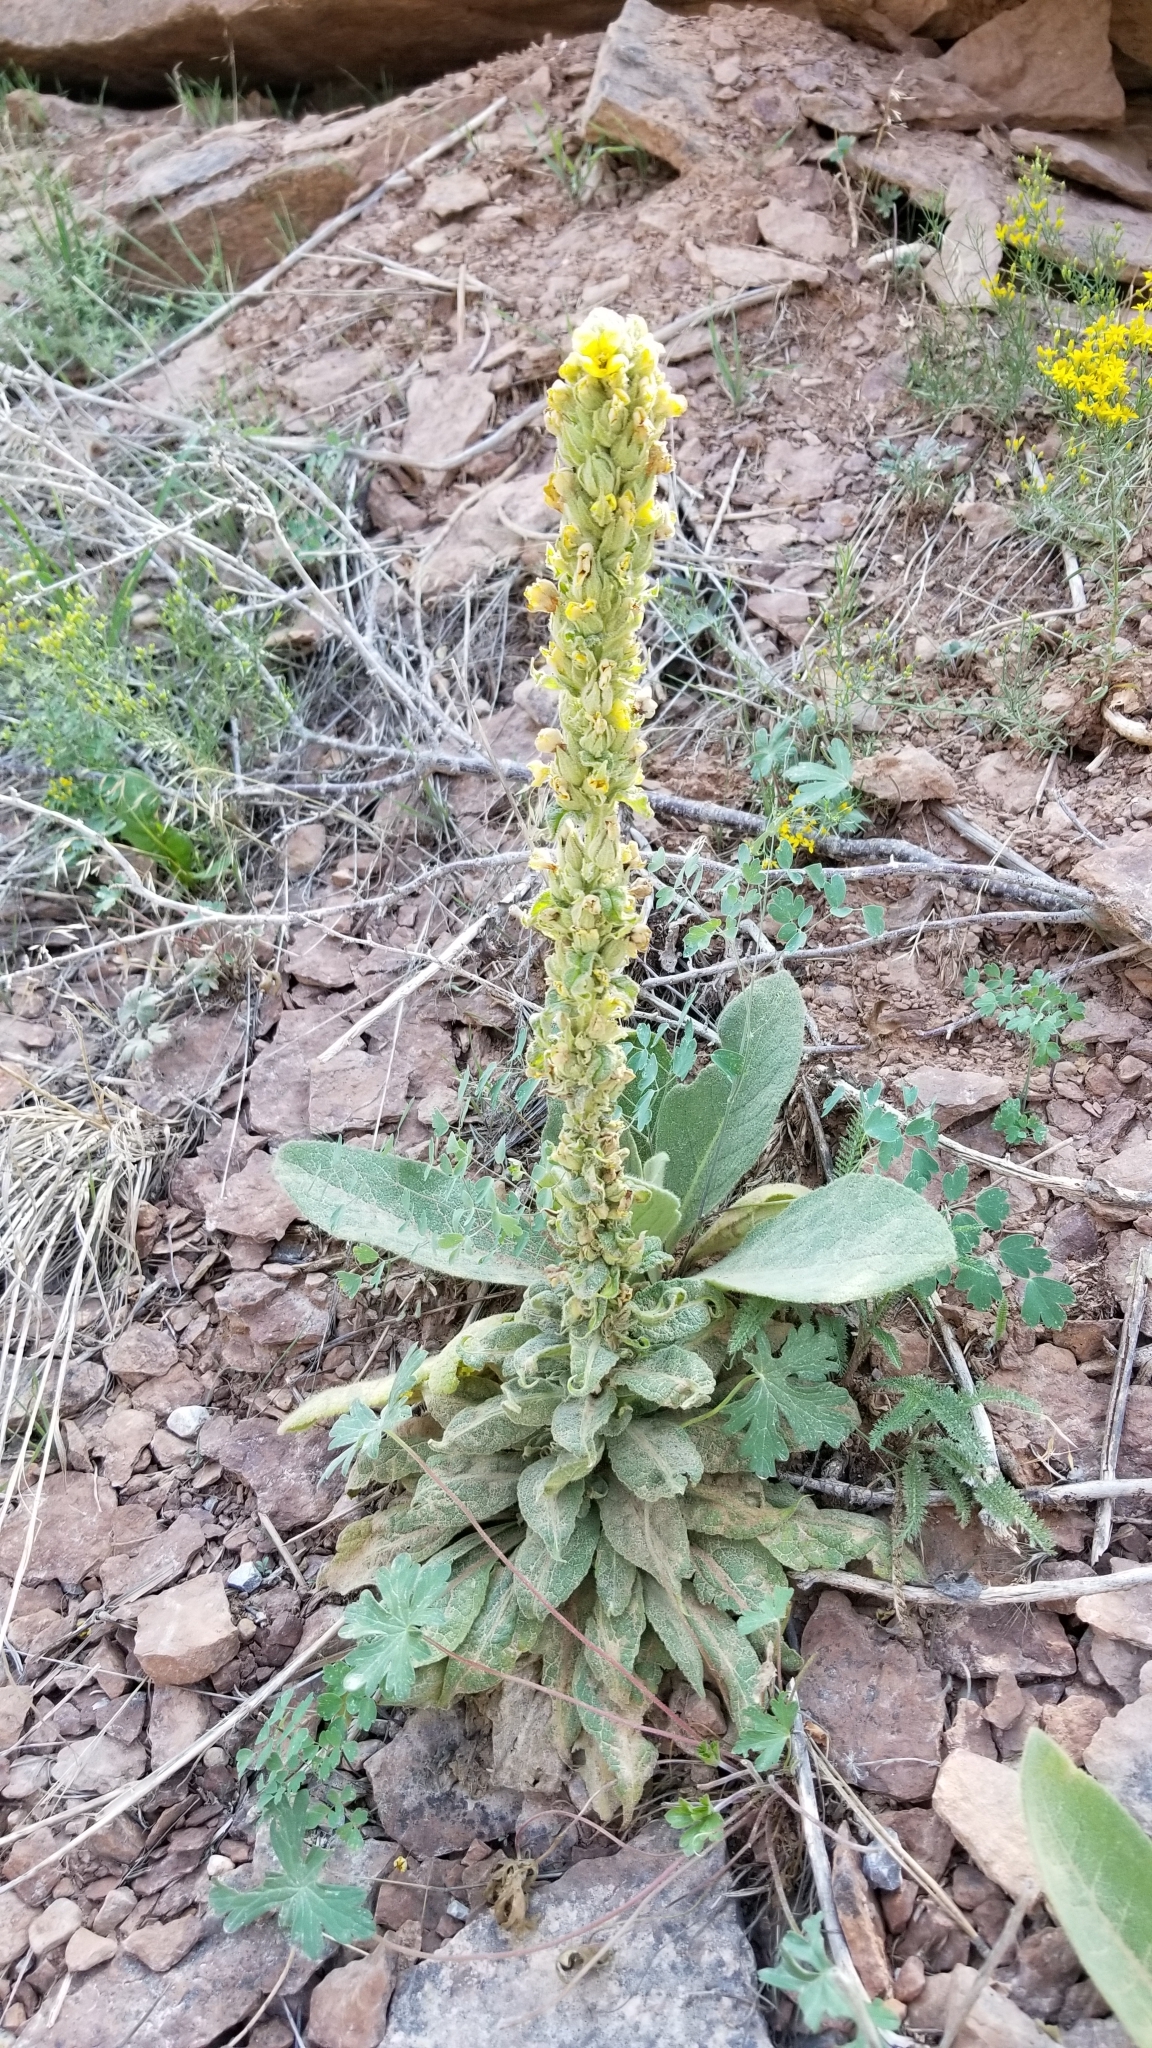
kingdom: Plantae
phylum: Tracheophyta
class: Magnoliopsida
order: Lamiales
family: Scrophulariaceae
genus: Verbascum
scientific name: Verbascum thapsus
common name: Common mullein
